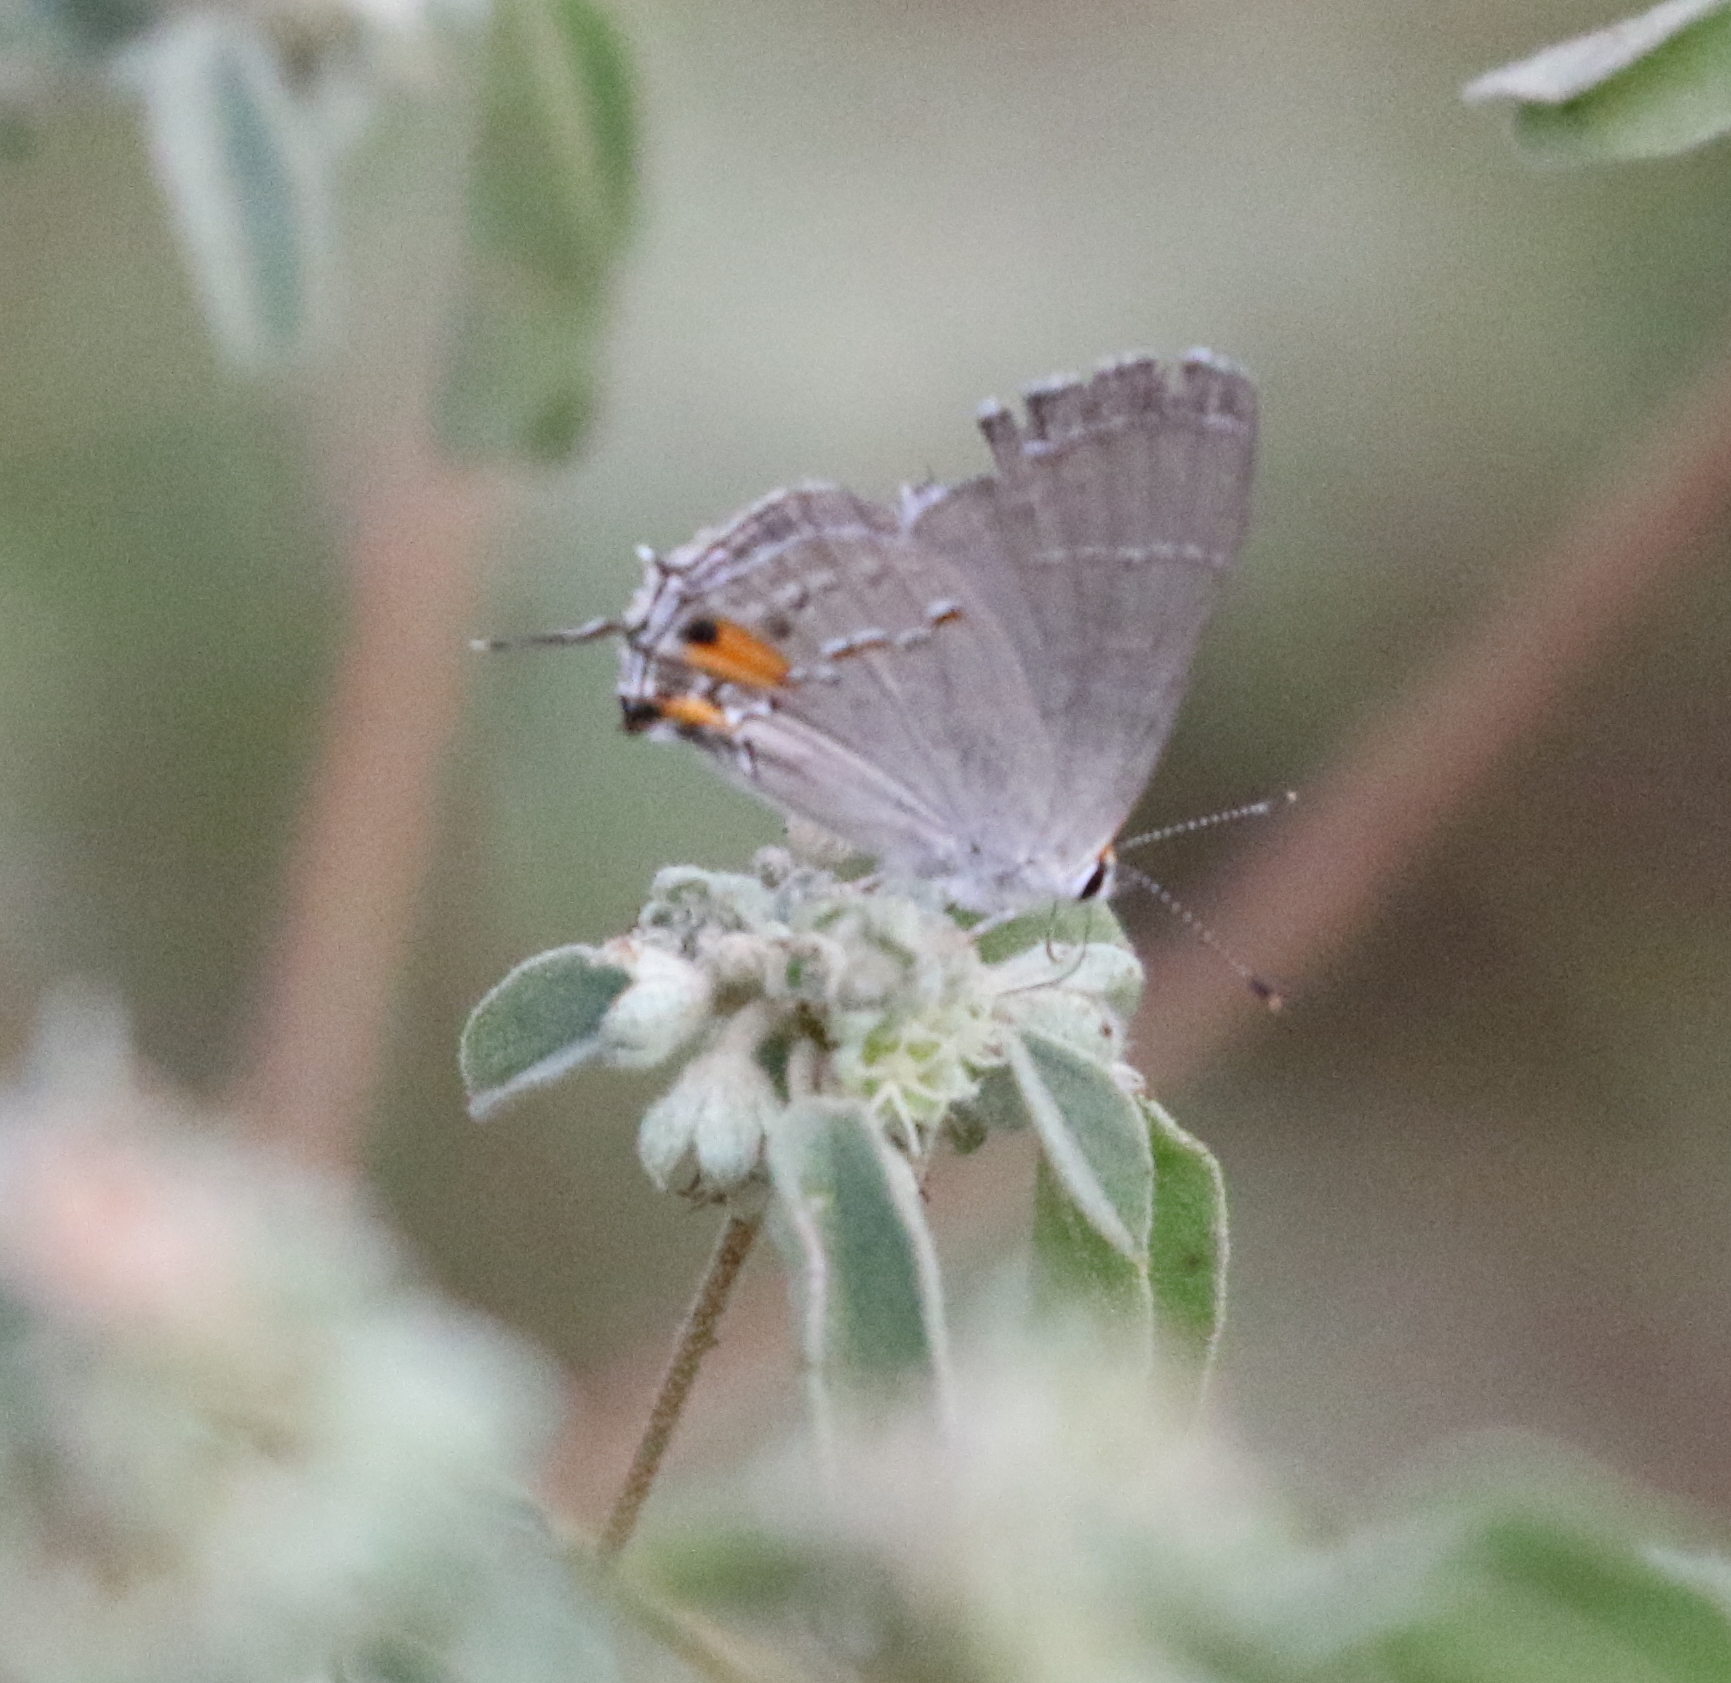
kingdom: Animalia
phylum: Arthropoda
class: Insecta
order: Lepidoptera
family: Lycaenidae
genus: Strymon
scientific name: Strymon melinus
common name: Gray hairstreak
